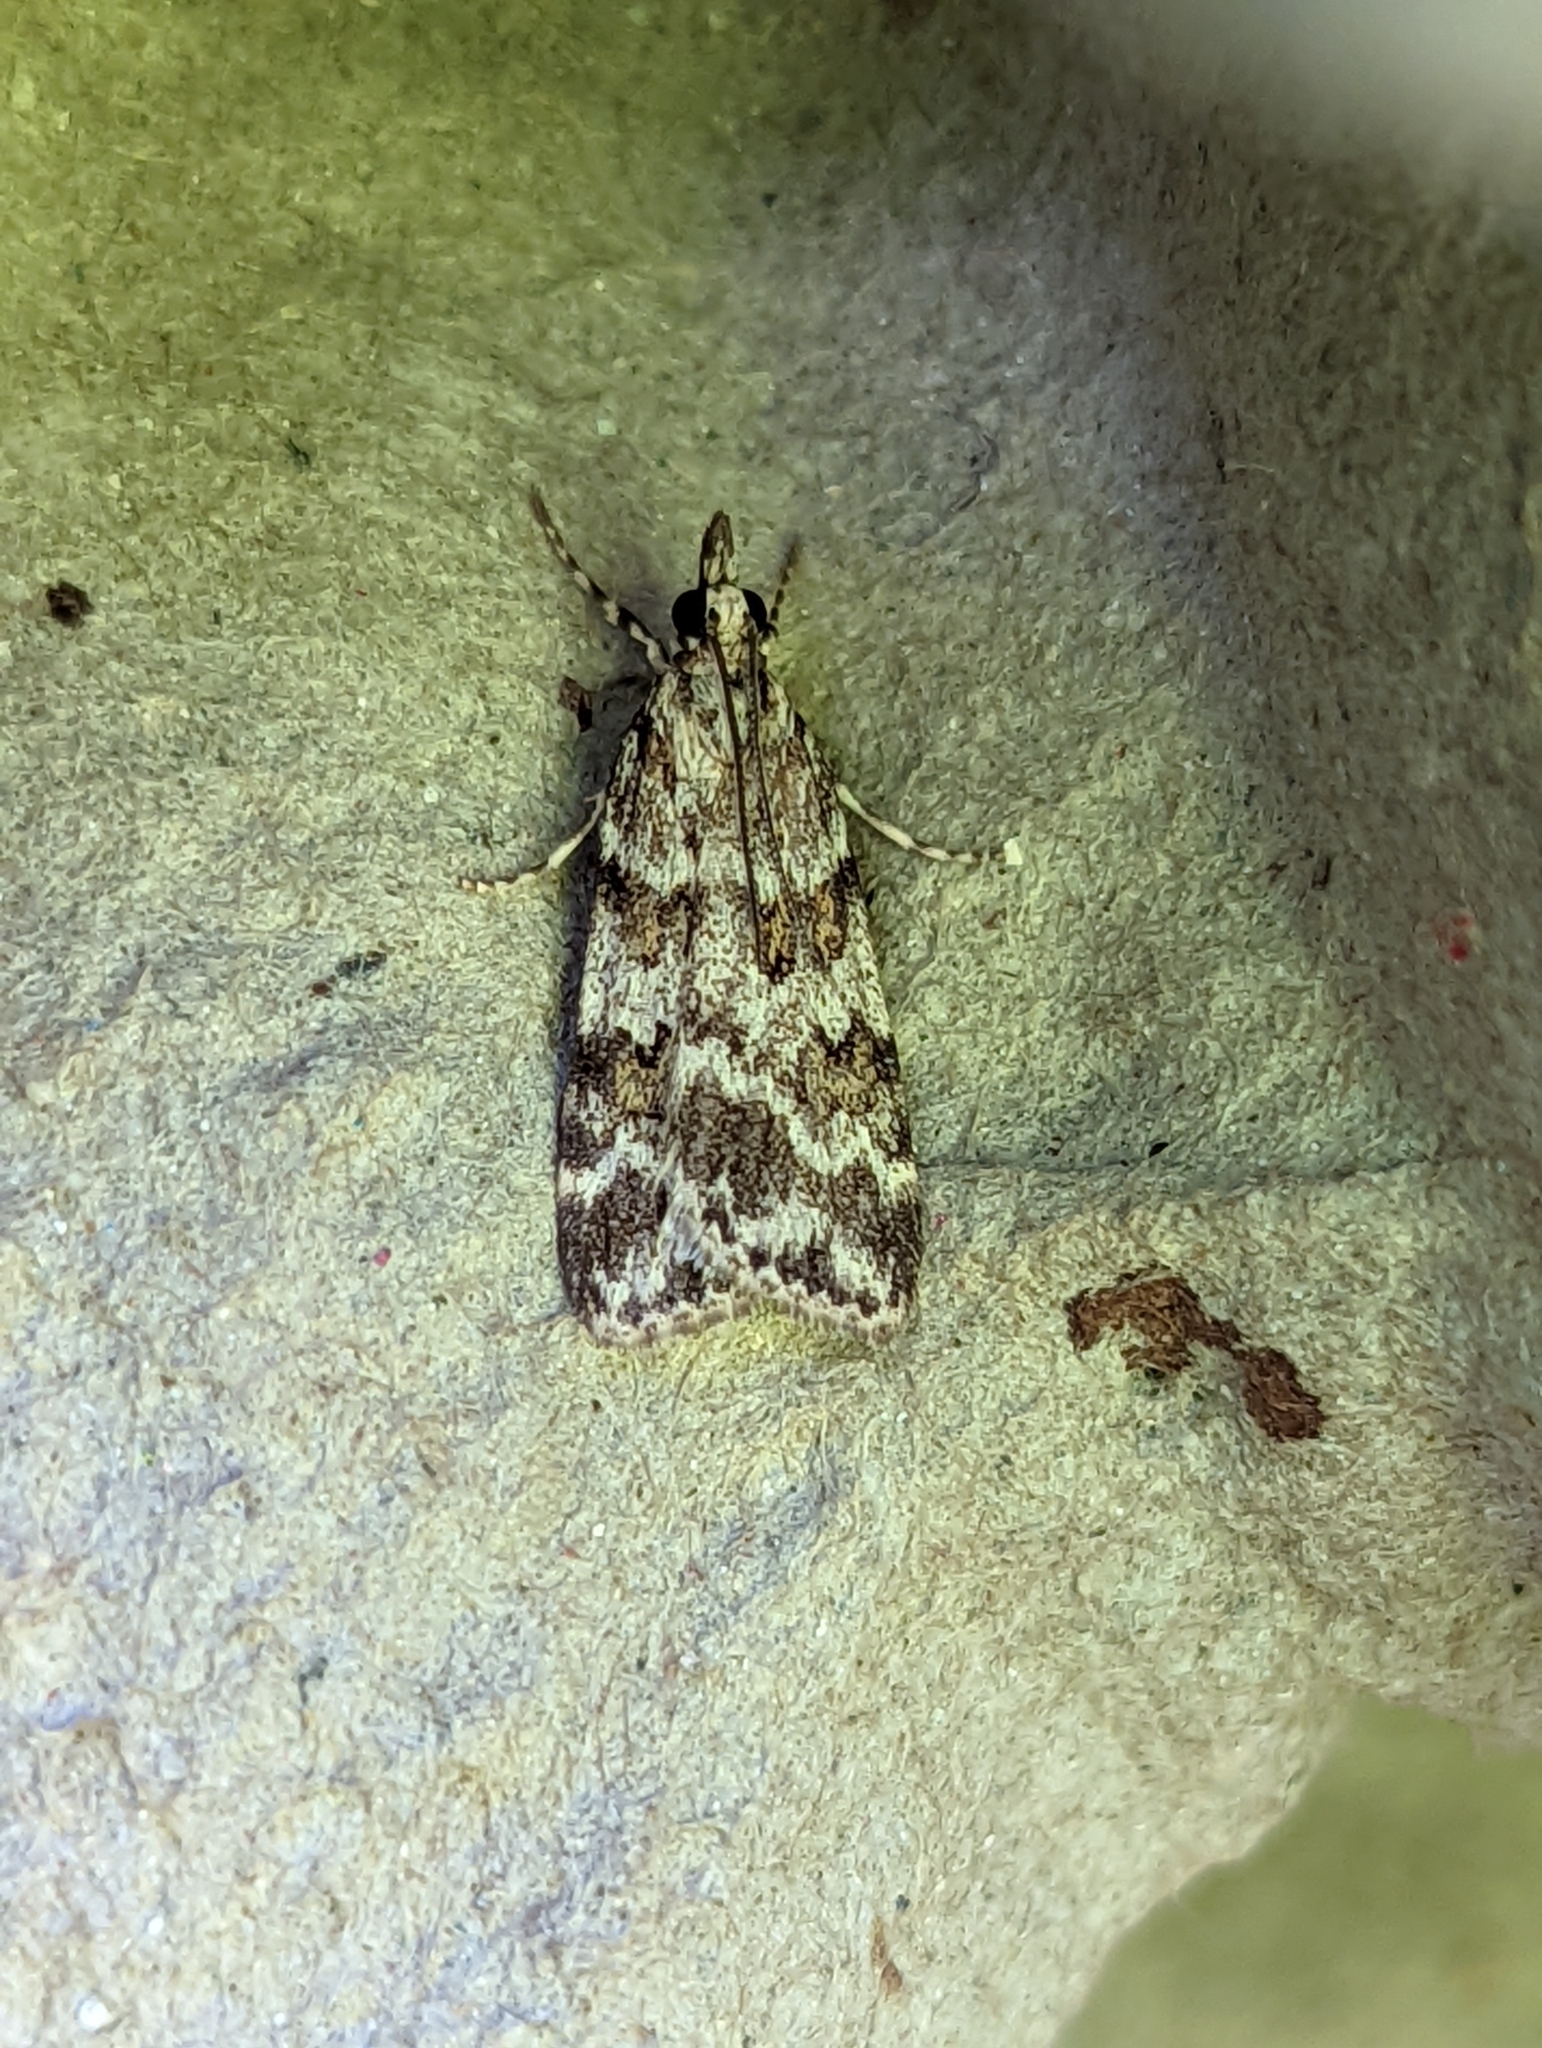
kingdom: Animalia
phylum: Arthropoda
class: Insecta
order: Lepidoptera
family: Crambidae
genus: Scoparia
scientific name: Scoparia pyralella
